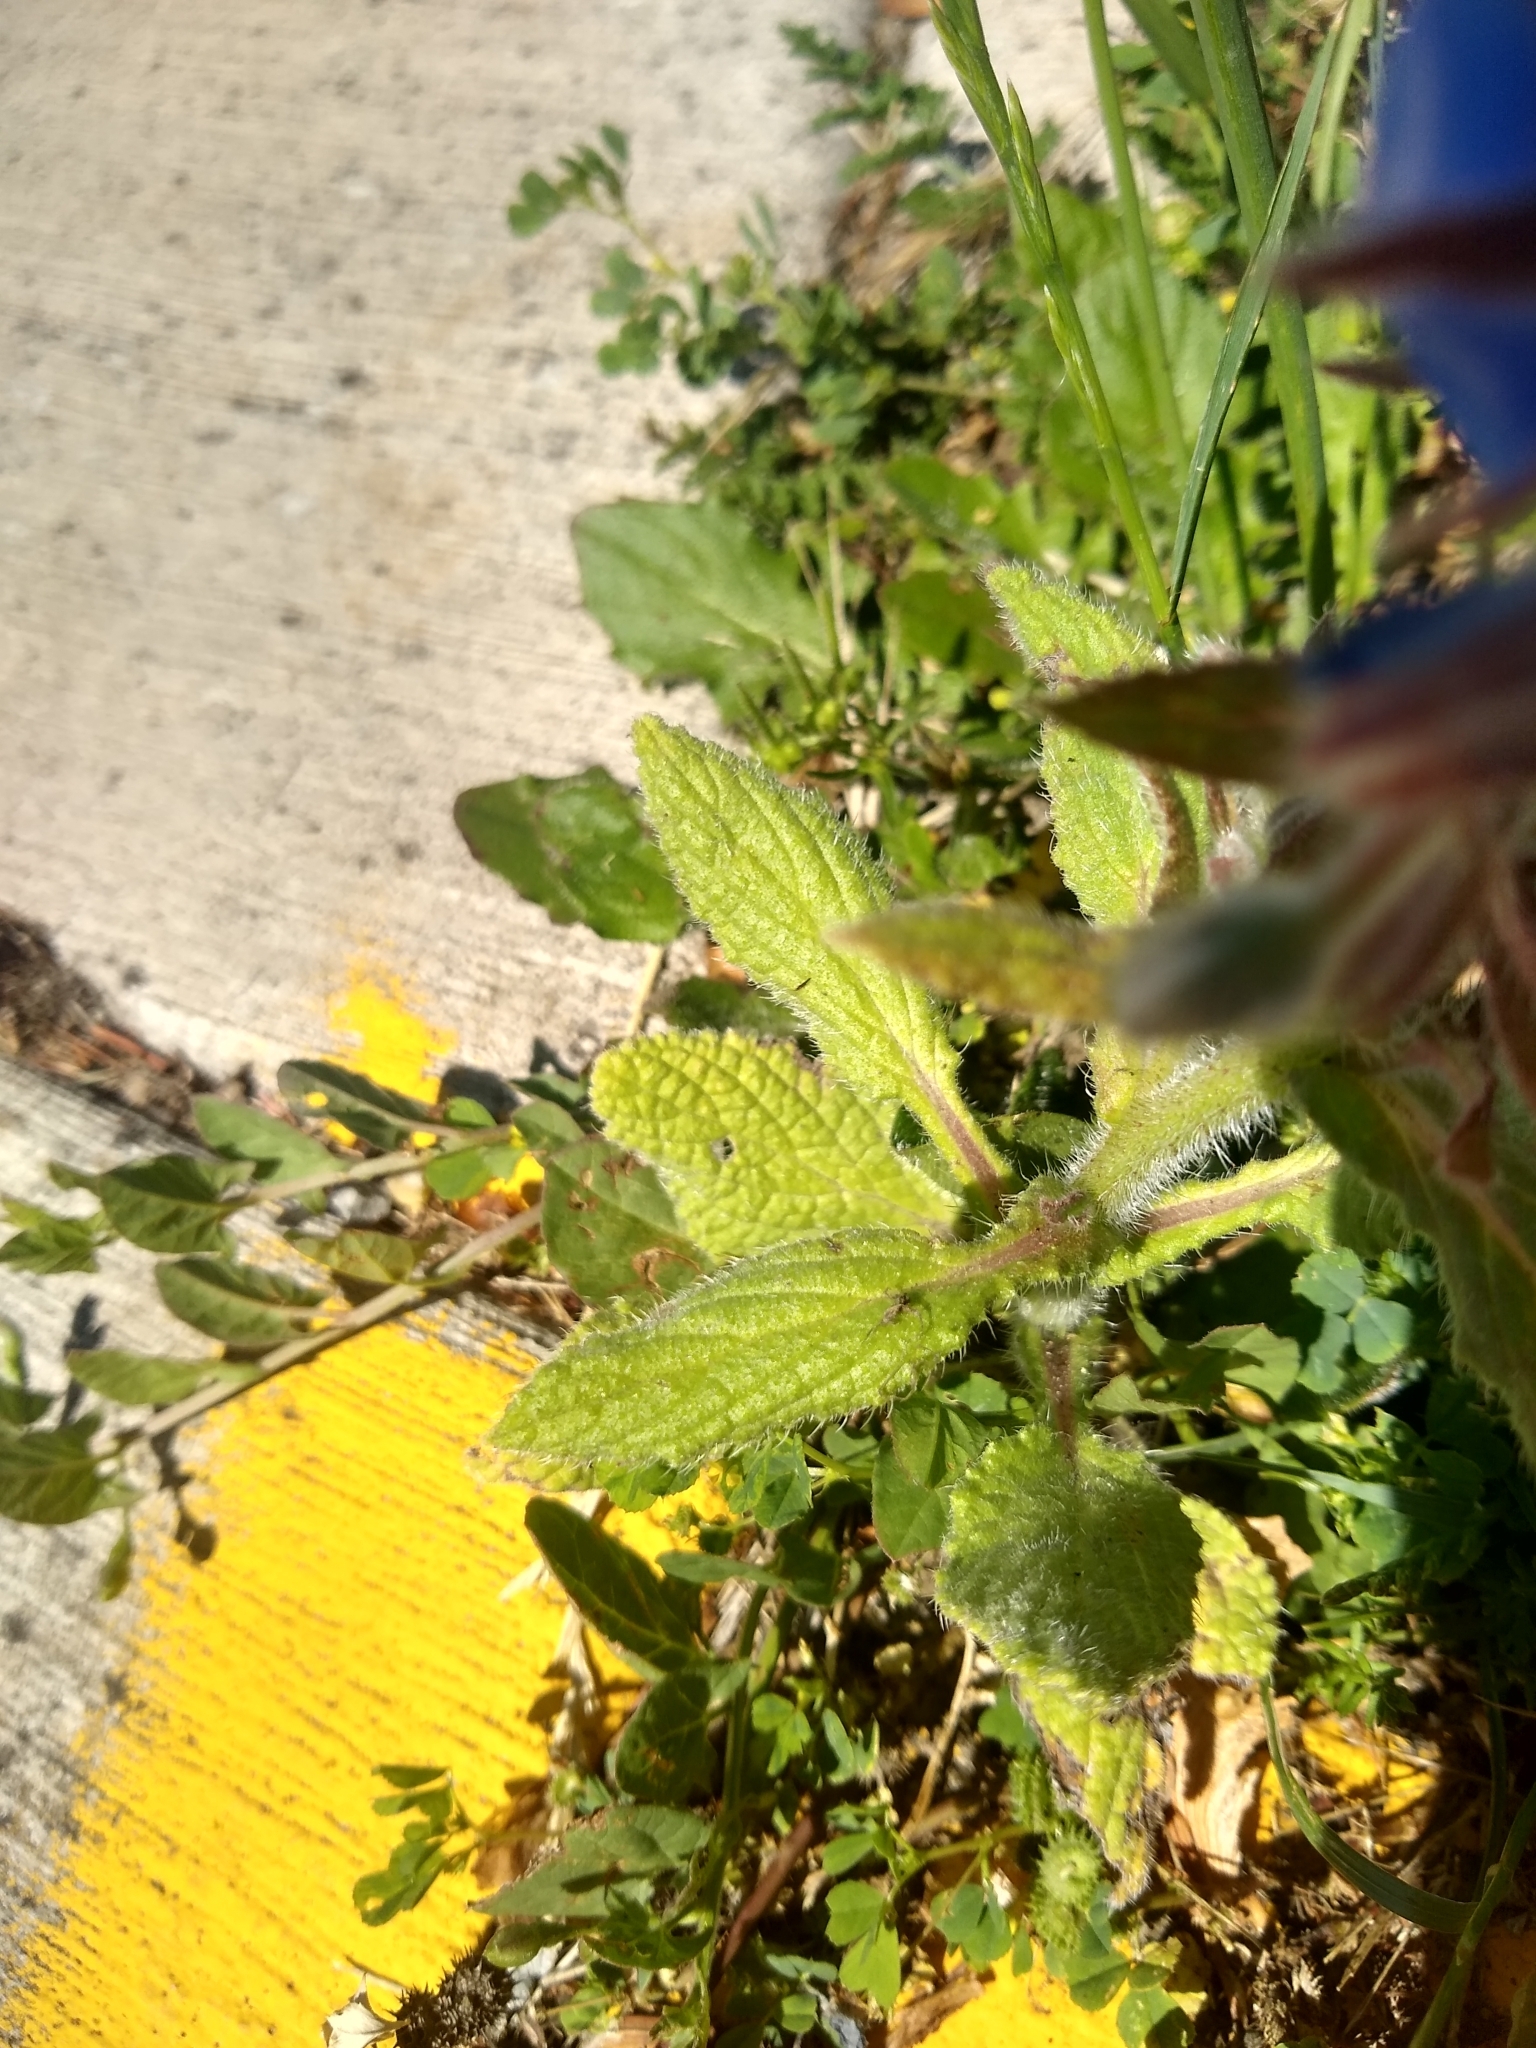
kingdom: Plantae
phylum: Tracheophyta
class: Magnoliopsida
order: Boraginales
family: Boraginaceae
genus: Borago
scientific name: Borago officinalis
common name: Borage
